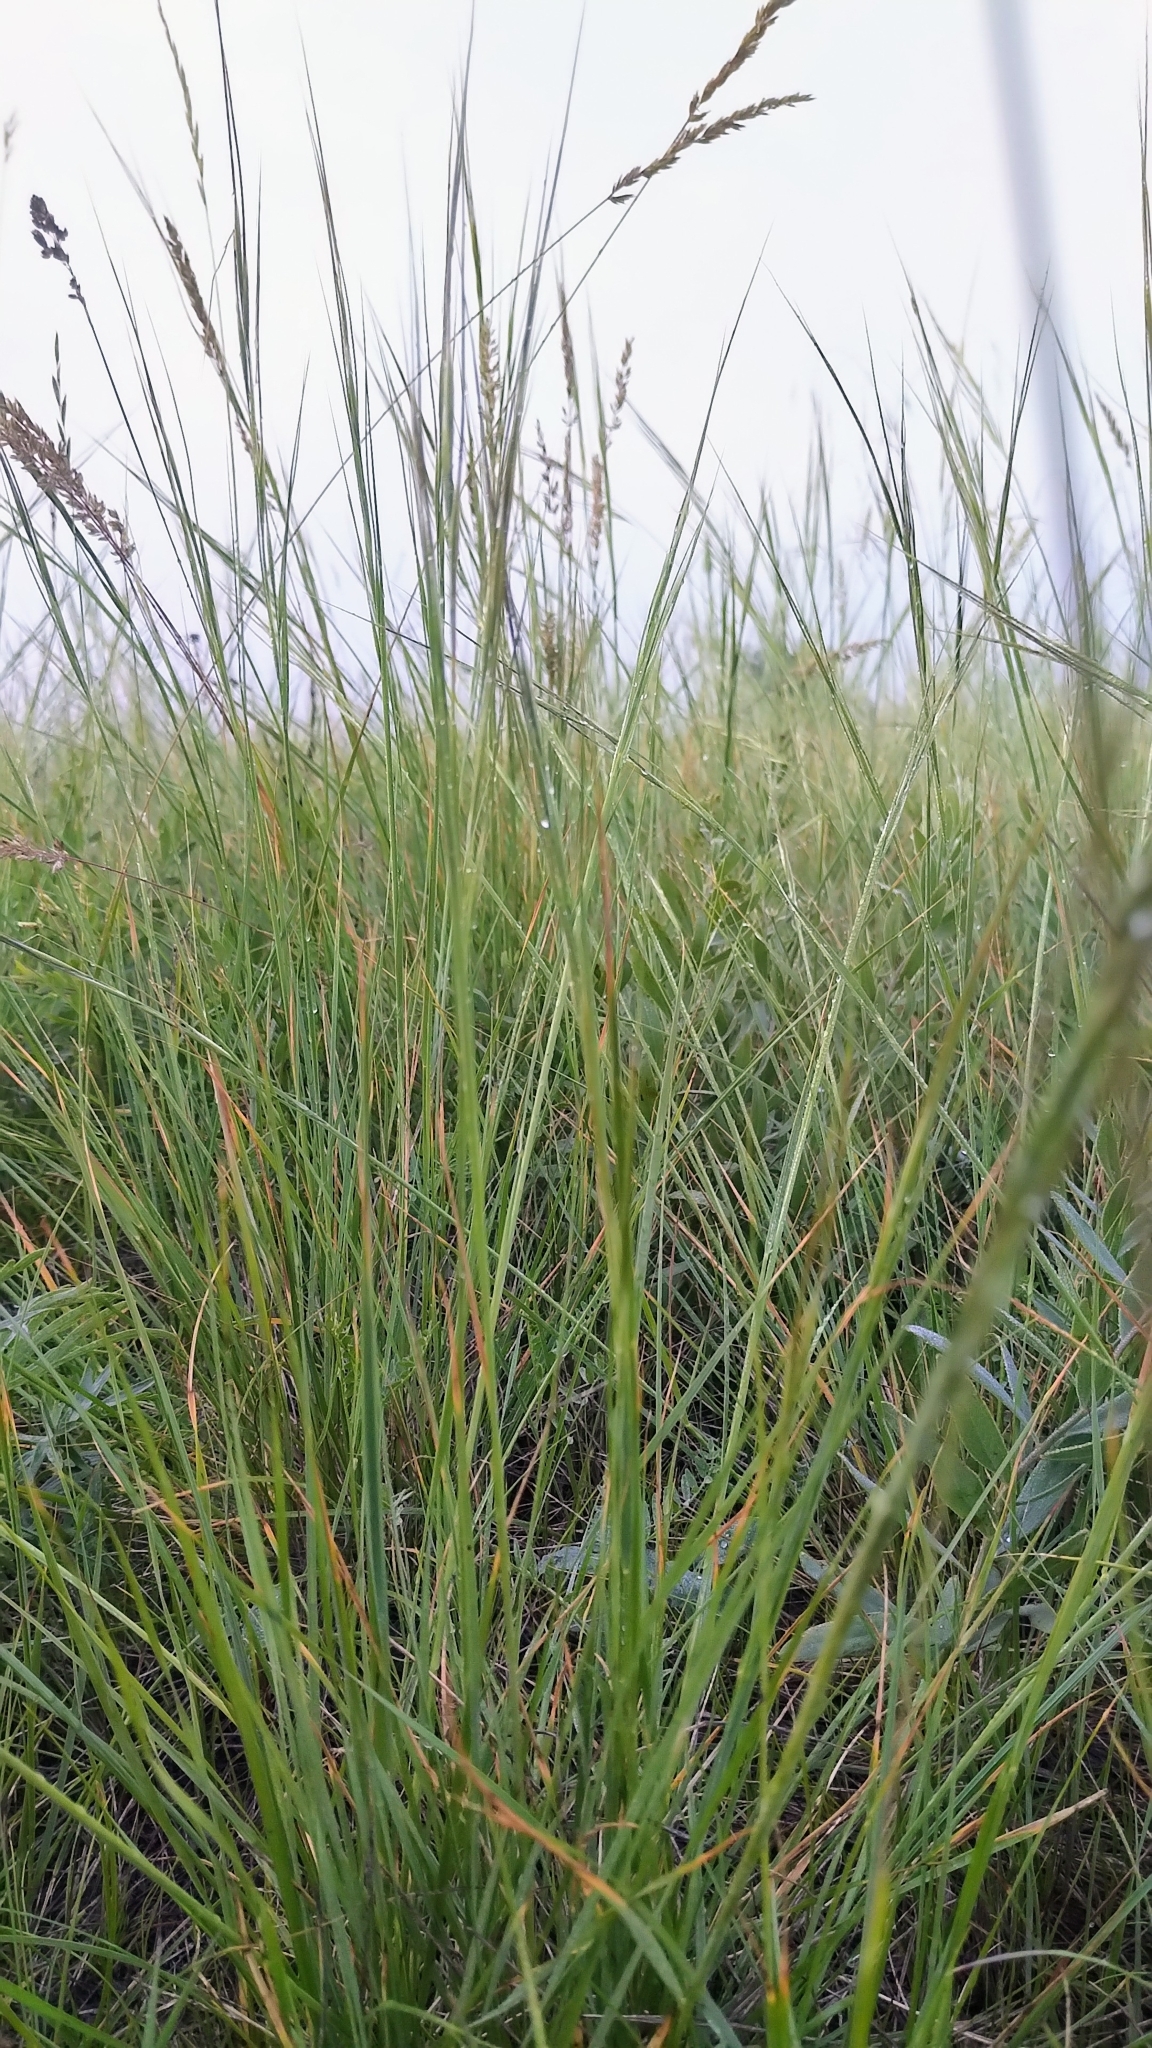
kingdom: Plantae
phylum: Tracheophyta
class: Liliopsida
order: Poales
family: Poaceae
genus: Hesperostipa
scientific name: Hesperostipa curtiseta
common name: Canada needle-and-thread grass
